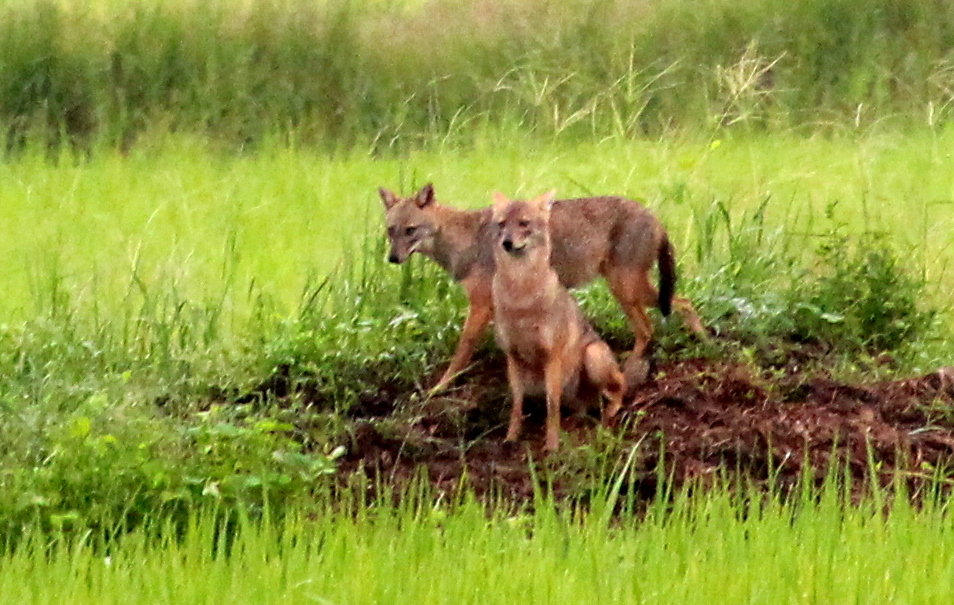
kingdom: Animalia
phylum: Chordata
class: Mammalia
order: Carnivora
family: Canidae
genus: Canis
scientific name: Canis aureus
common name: Golden jackal
